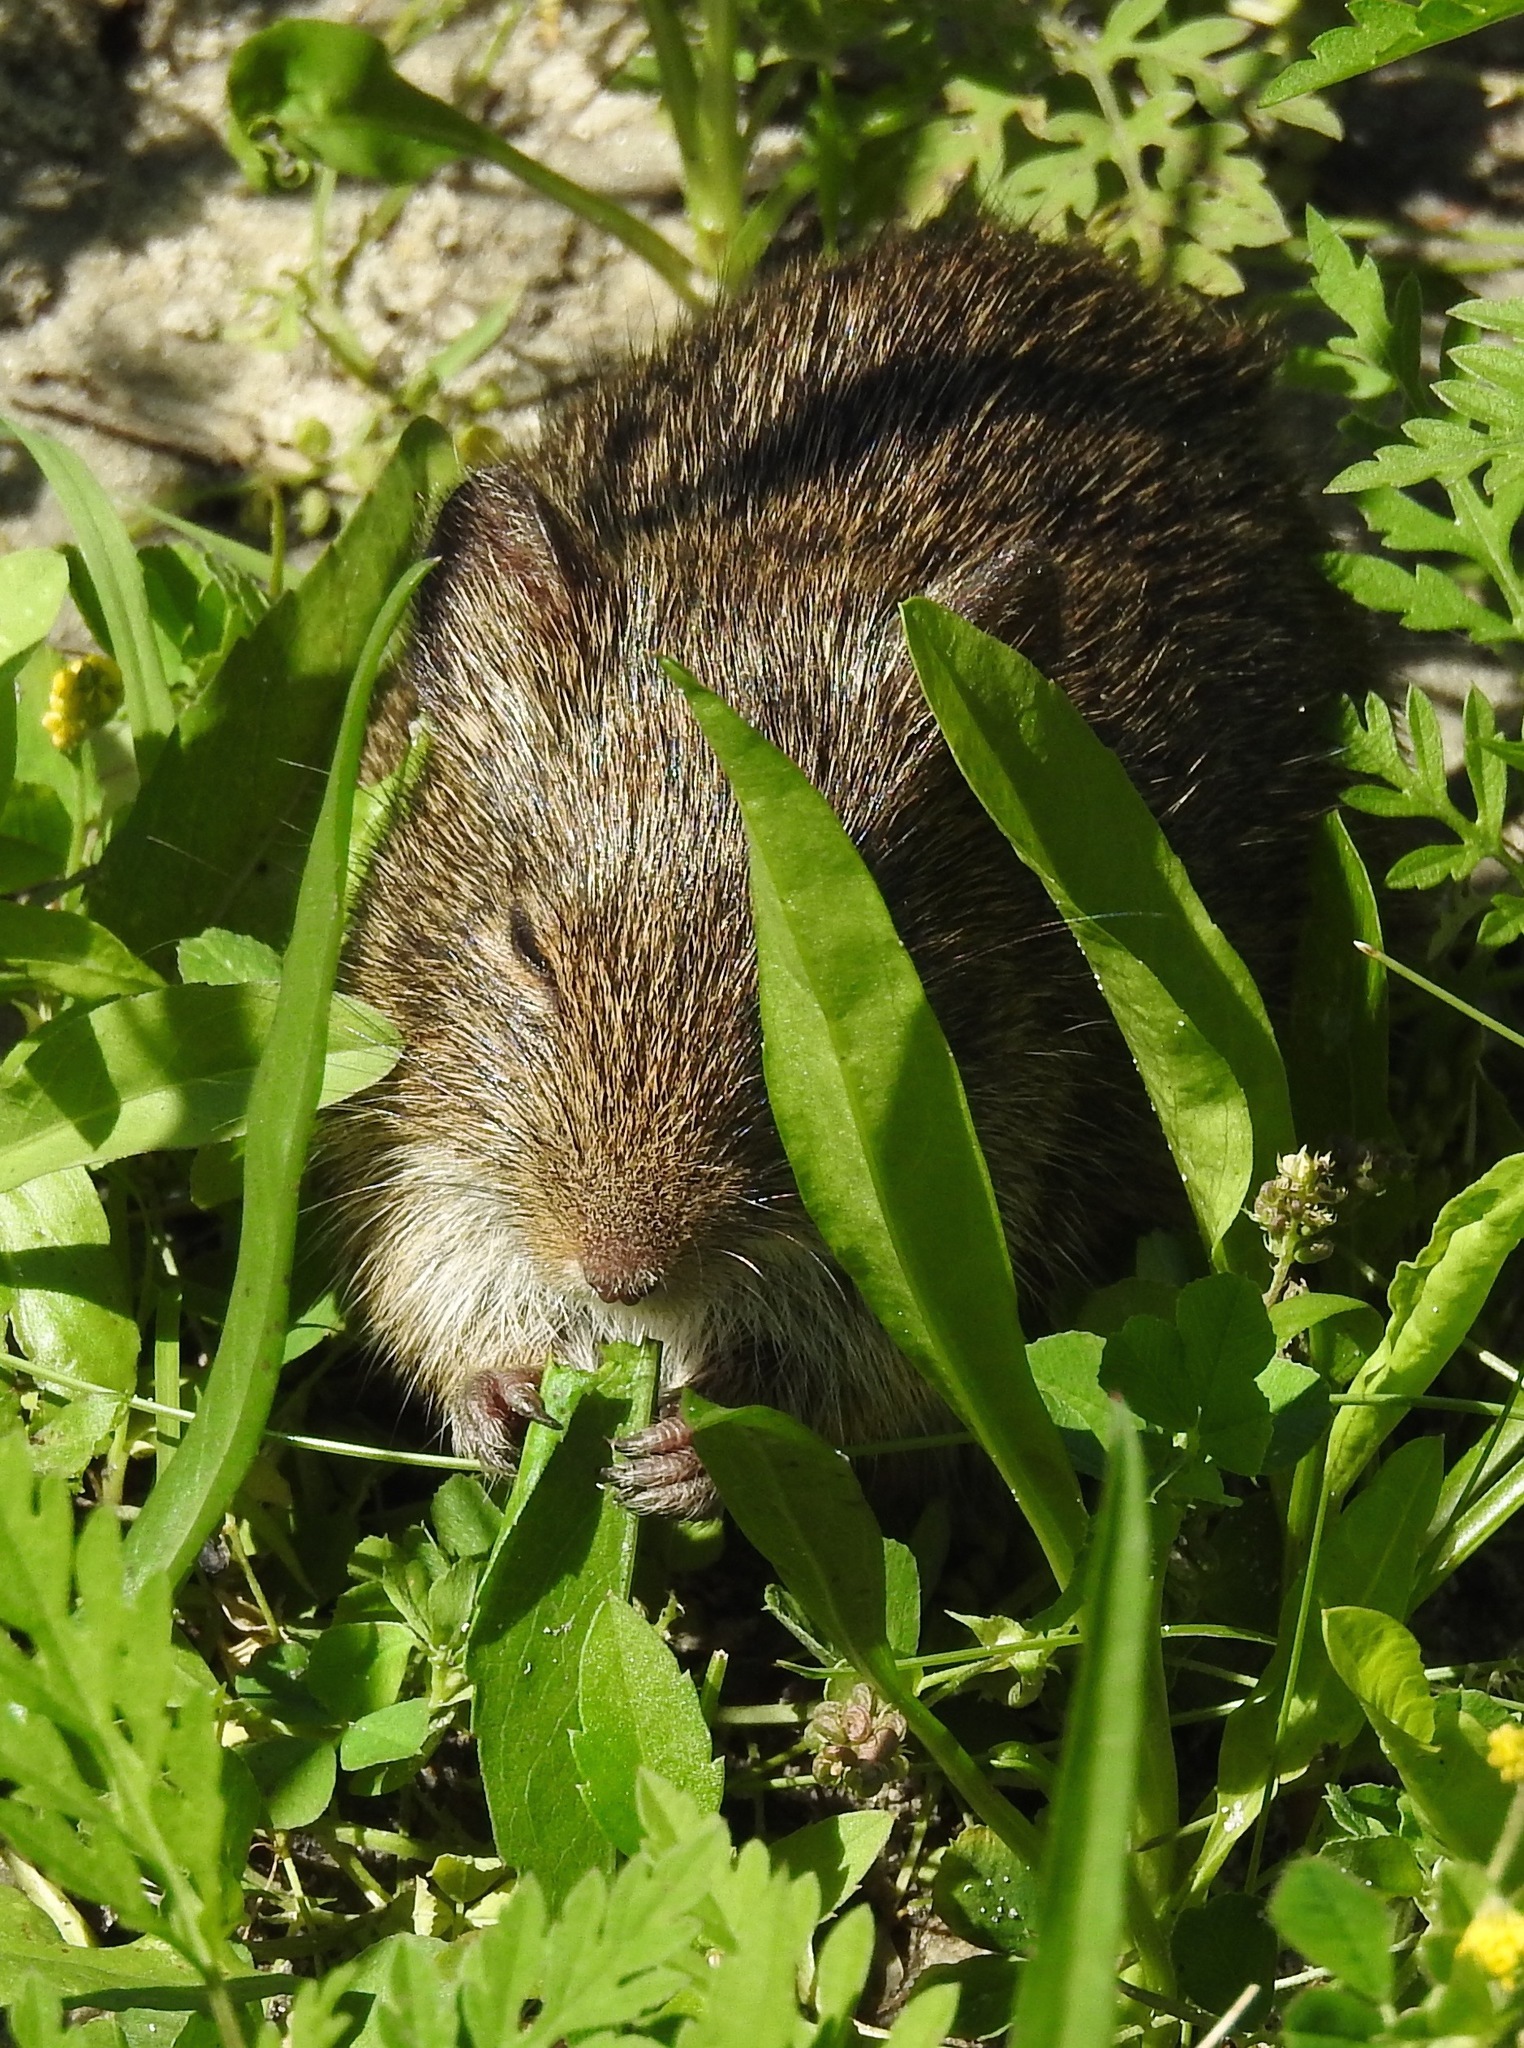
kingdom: Animalia
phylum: Chordata
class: Mammalia
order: Rodentia
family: Cricetidae
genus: Sigmodon
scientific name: Sigmodon hispidus
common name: Hispid cotton rat
